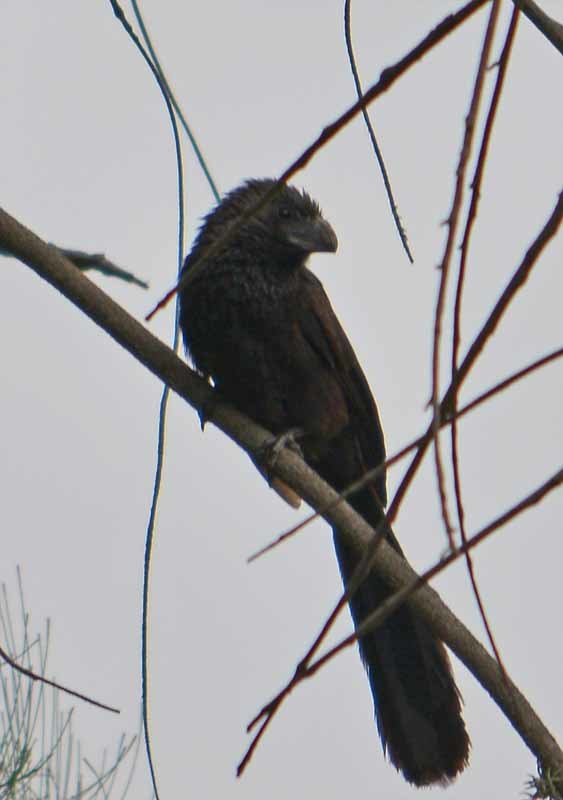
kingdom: Animalia
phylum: Chordata
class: Aves
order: Cuculiformes
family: Cuculidae
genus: Crotophaga
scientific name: Crotophaga sulcirostris
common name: Groove-billed ani
